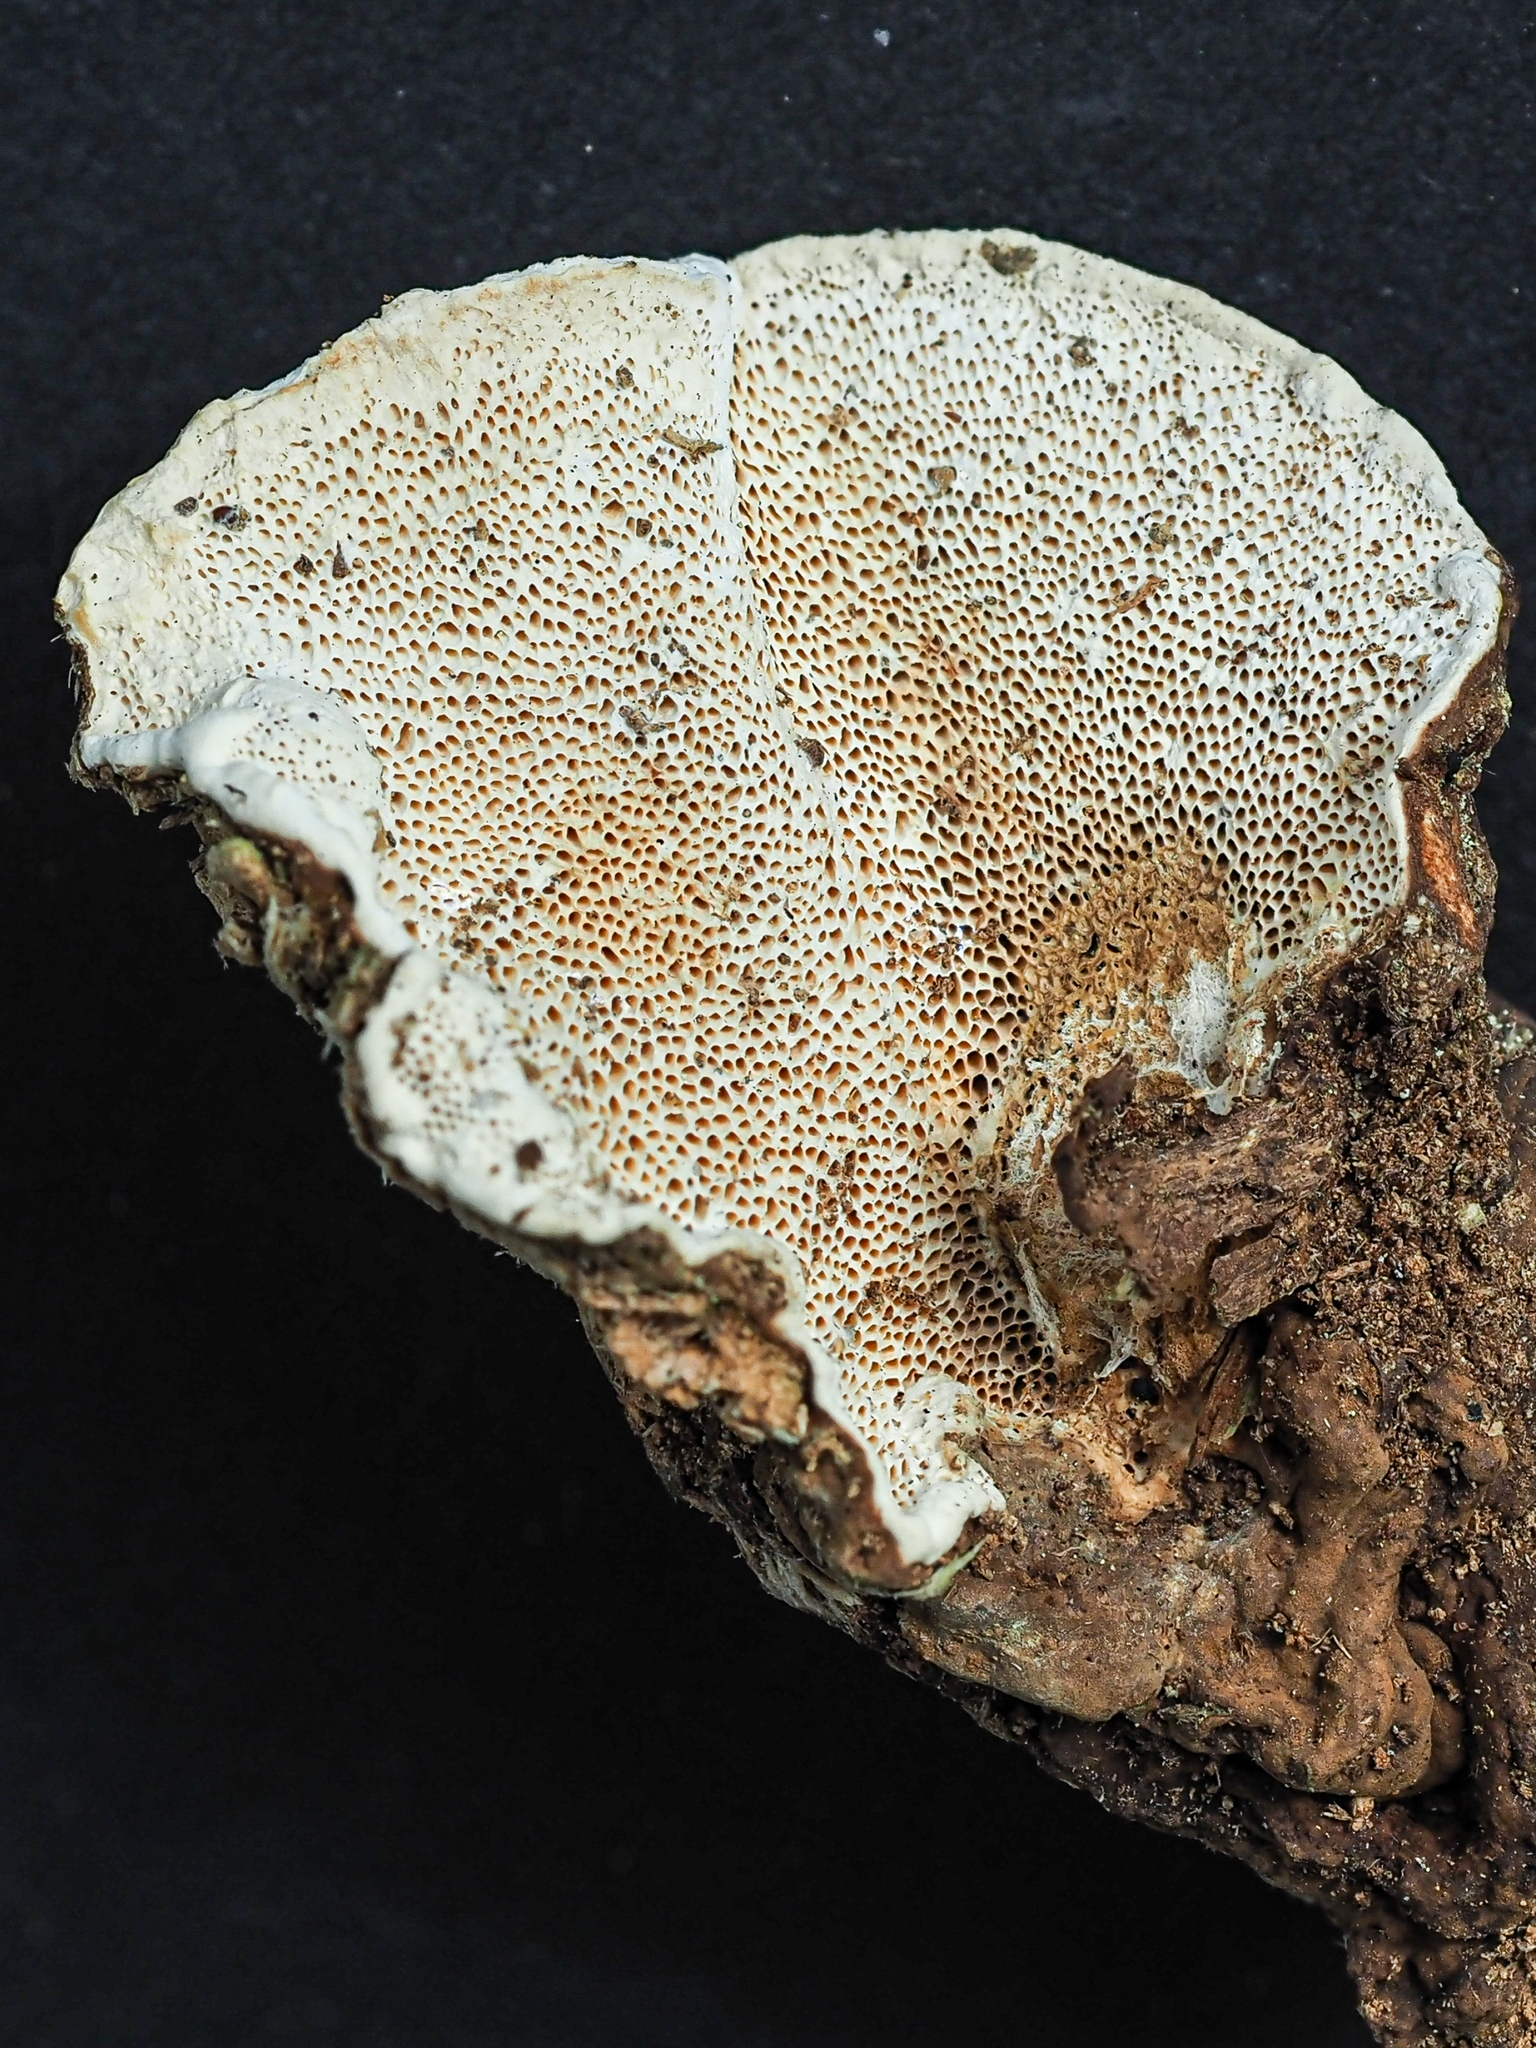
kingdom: Fungi
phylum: Basidiomycota
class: Agaricomycetes
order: Russulales
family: Bondarzewiaceae
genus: Heterobasidion
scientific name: Heterobasidion annosum
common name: Root rot
